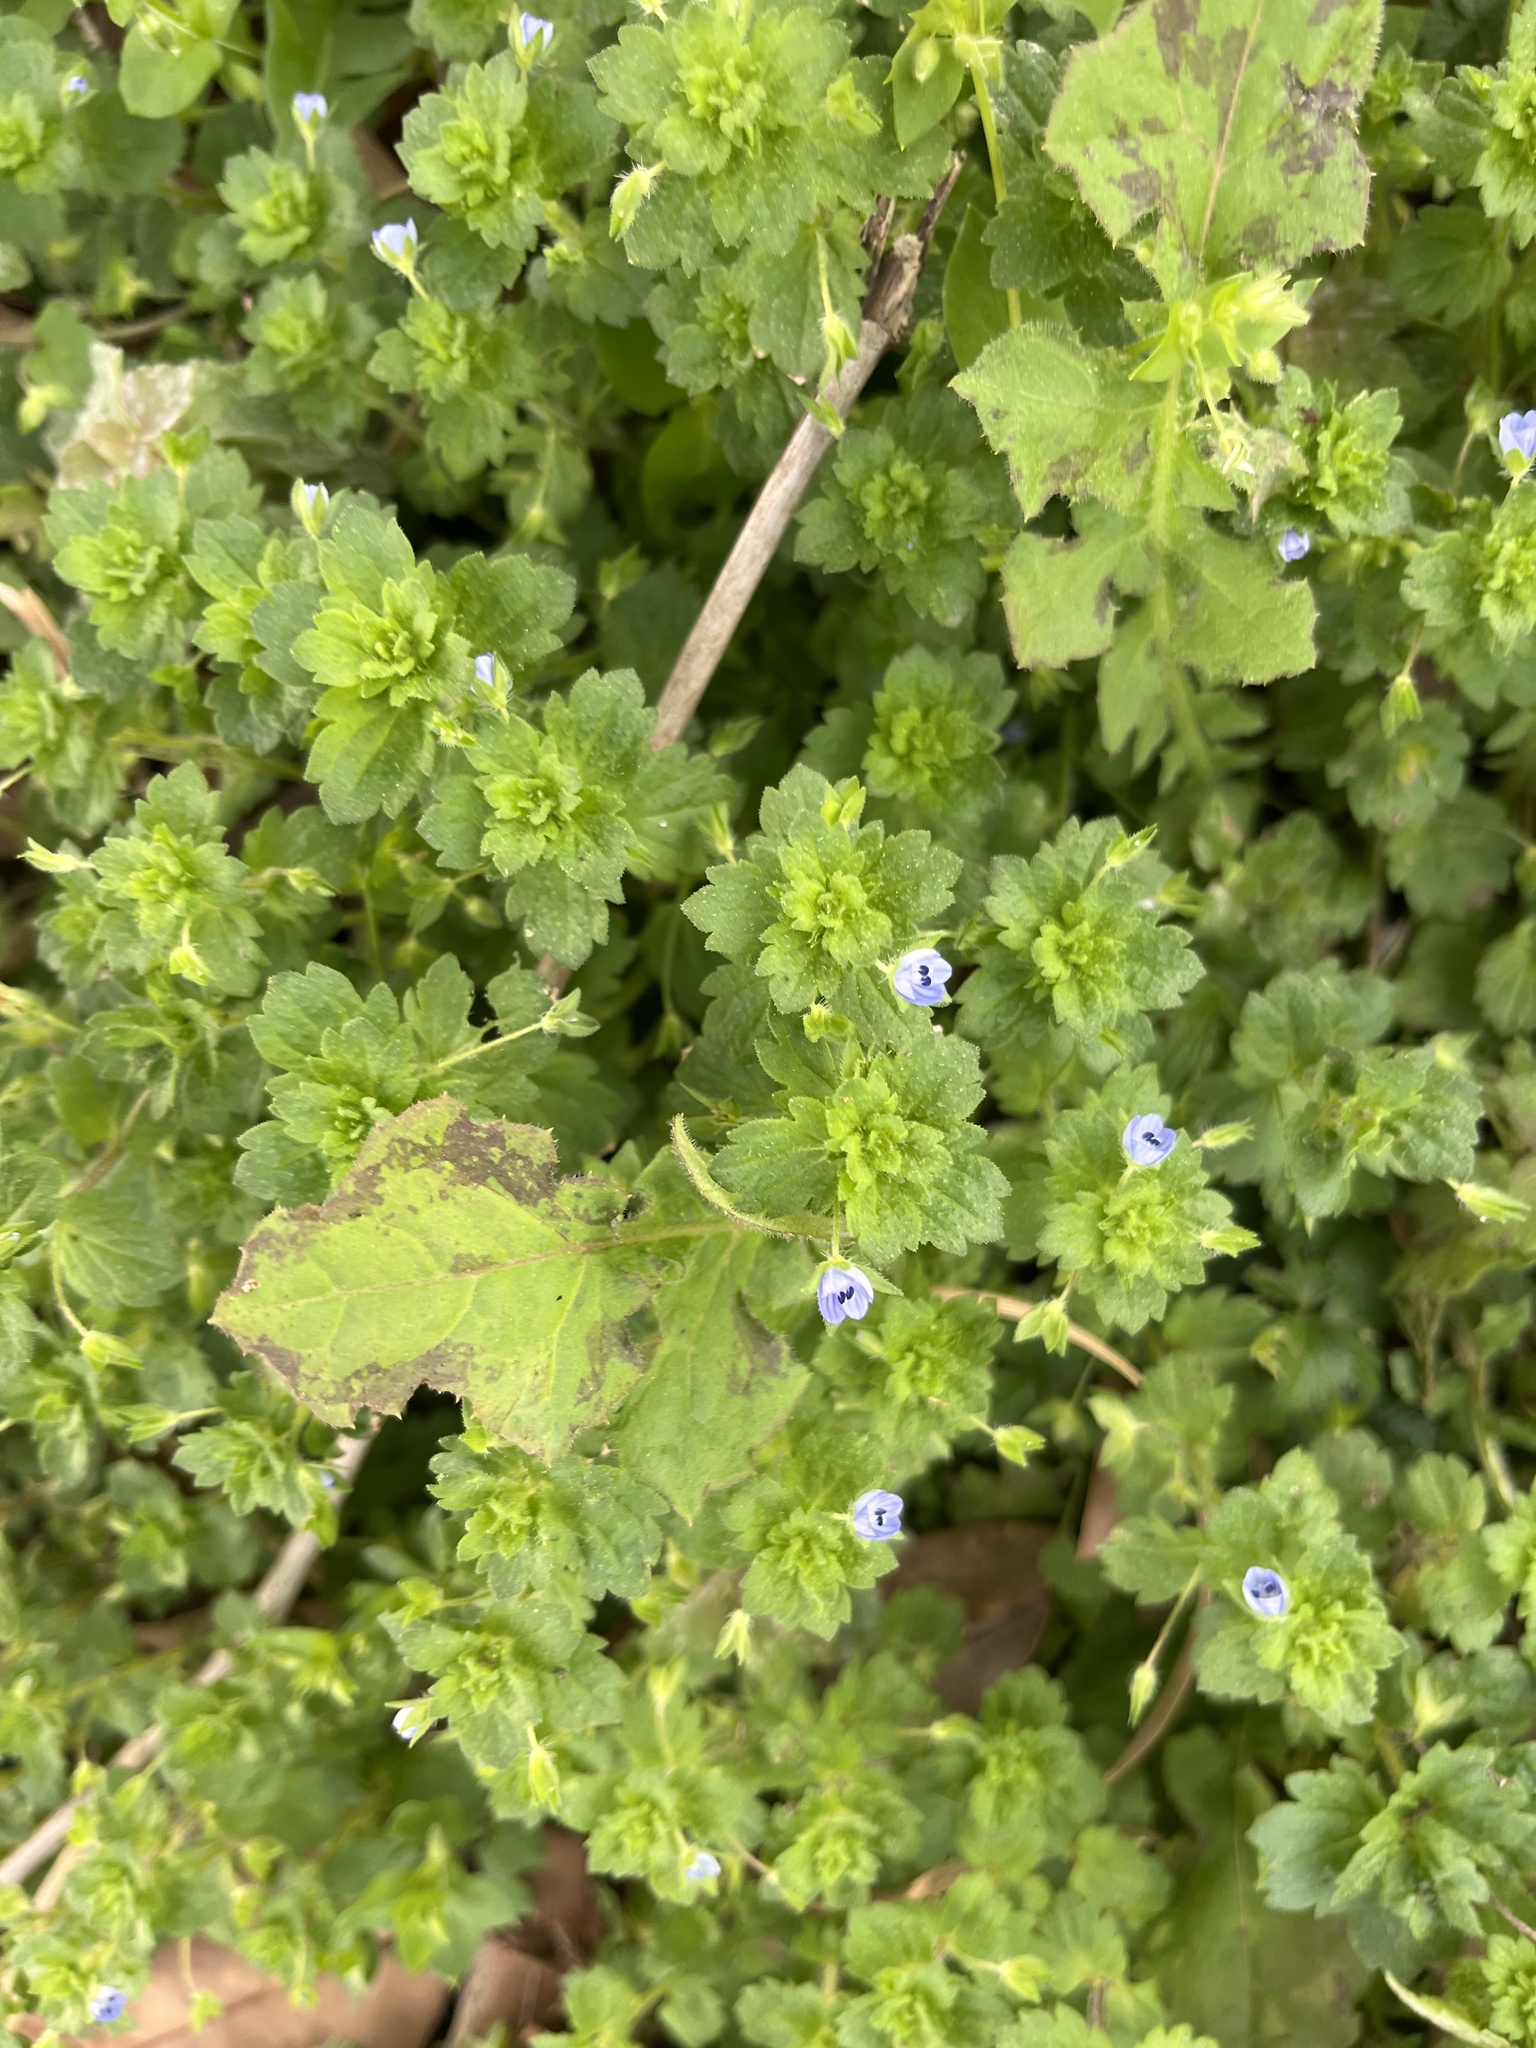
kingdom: Plantae
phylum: Tracheophyta
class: Magnoliopsida
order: Lamiales
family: Plantaginaceae
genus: Veronica
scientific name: Veronica persica
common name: Common field-speedwell
